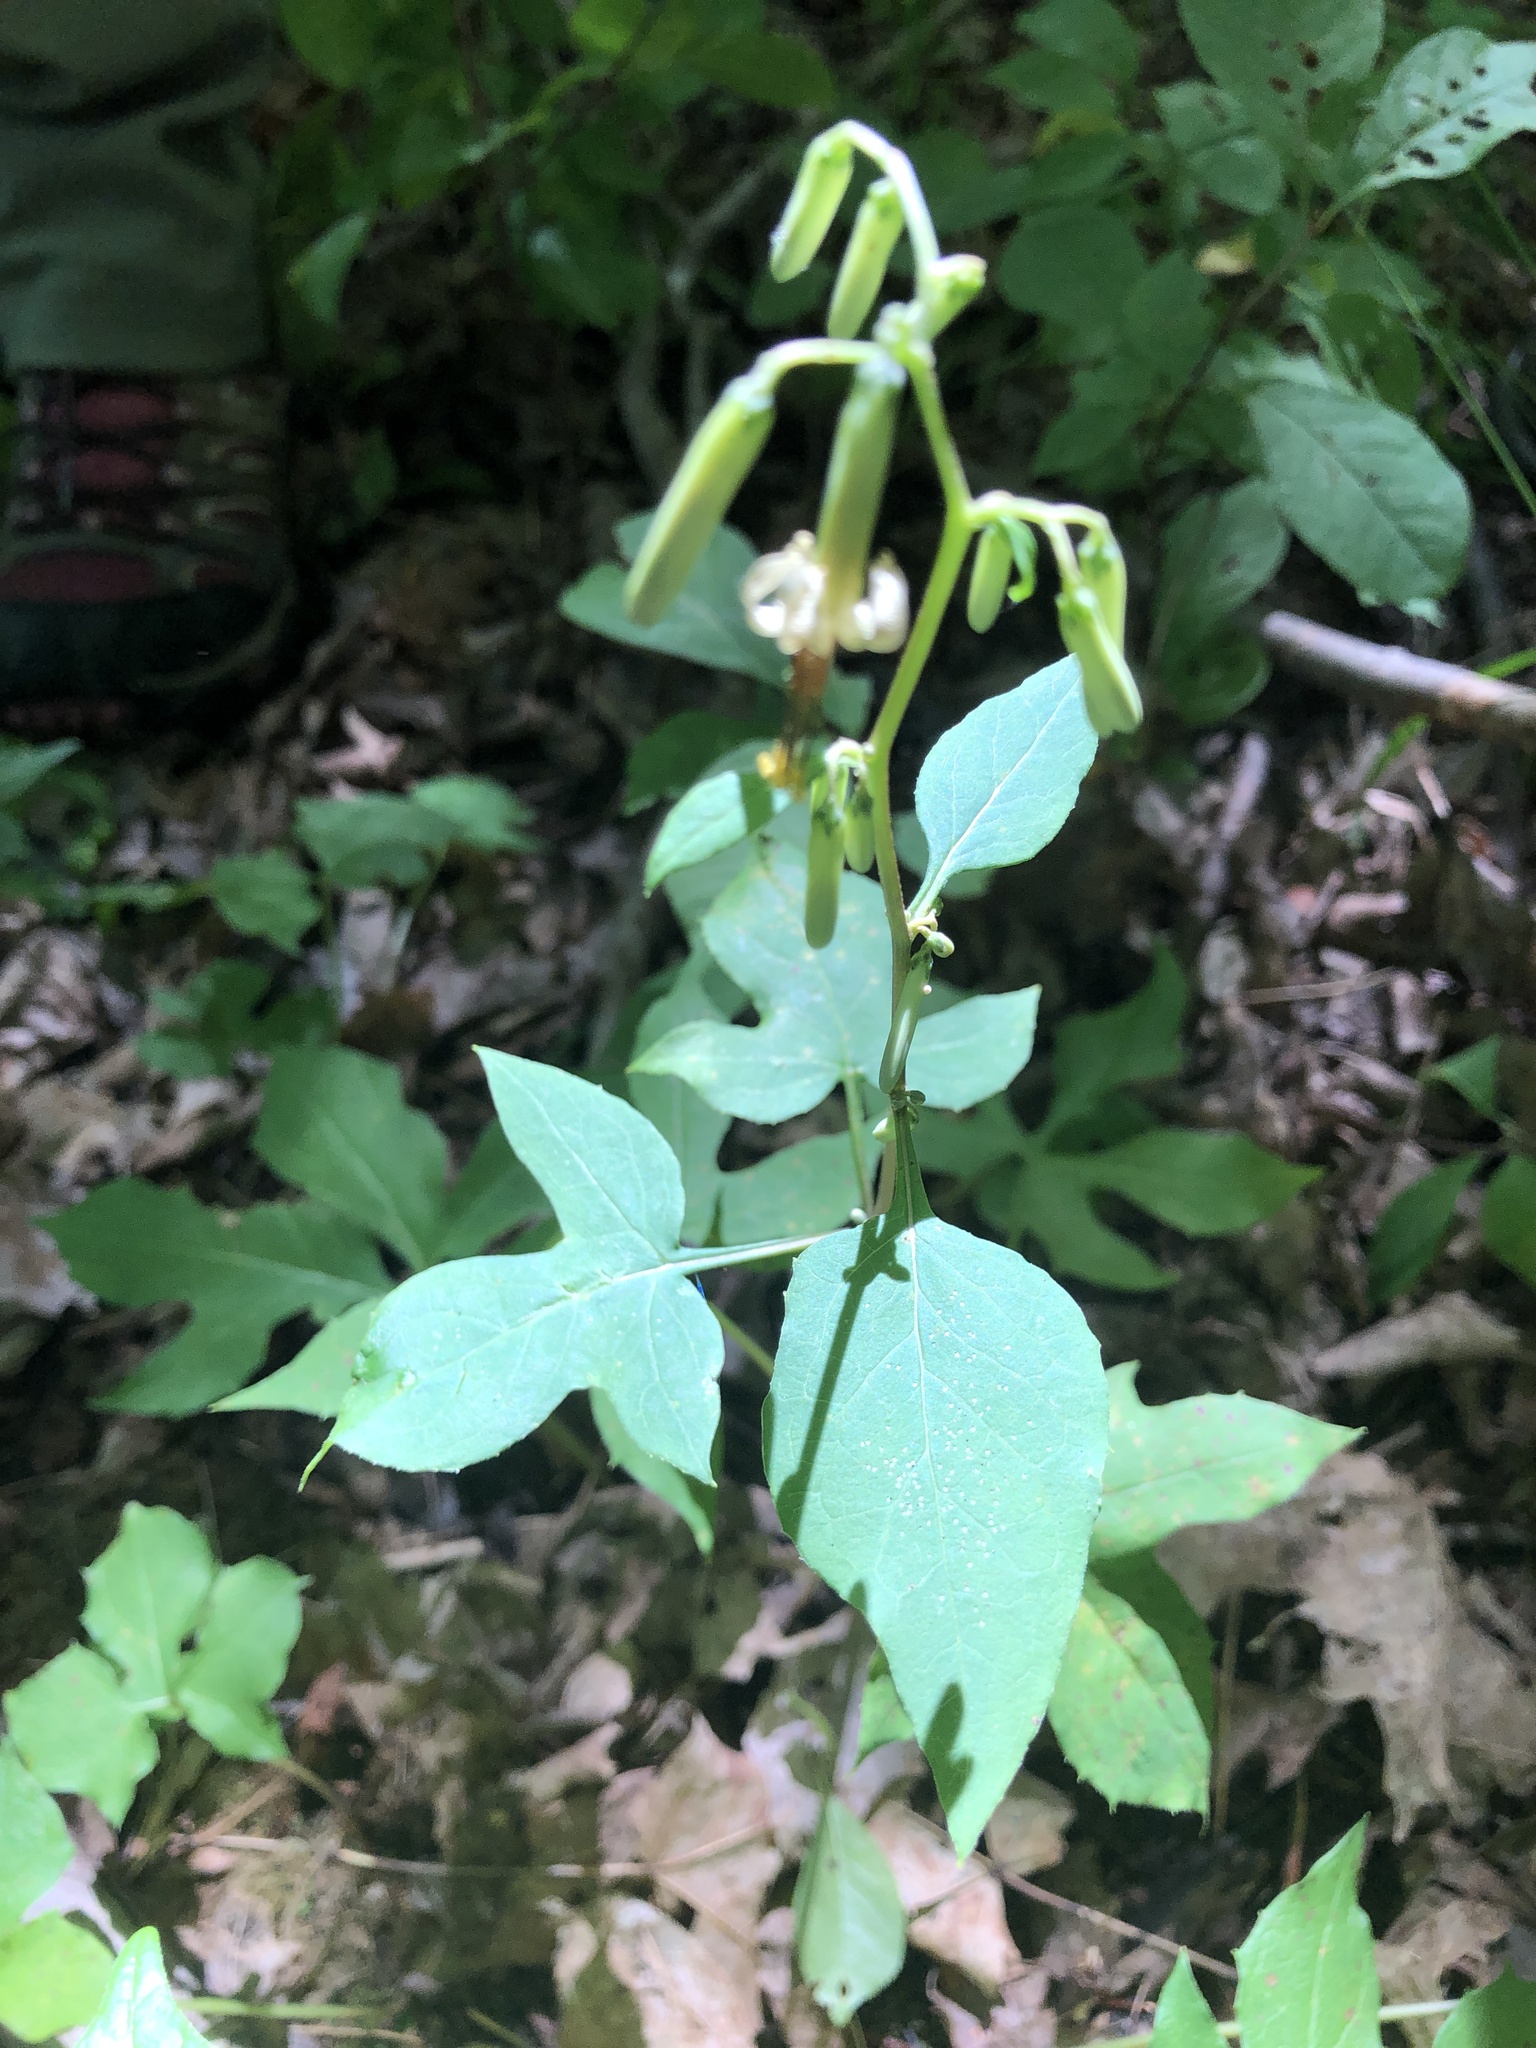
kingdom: Plantae
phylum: Tracheophyta
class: Magnoliopsida
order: Asterales
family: Asteraceae
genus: Nabalus
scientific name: Nabalus altissima
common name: Tall rattlesnakeroot
